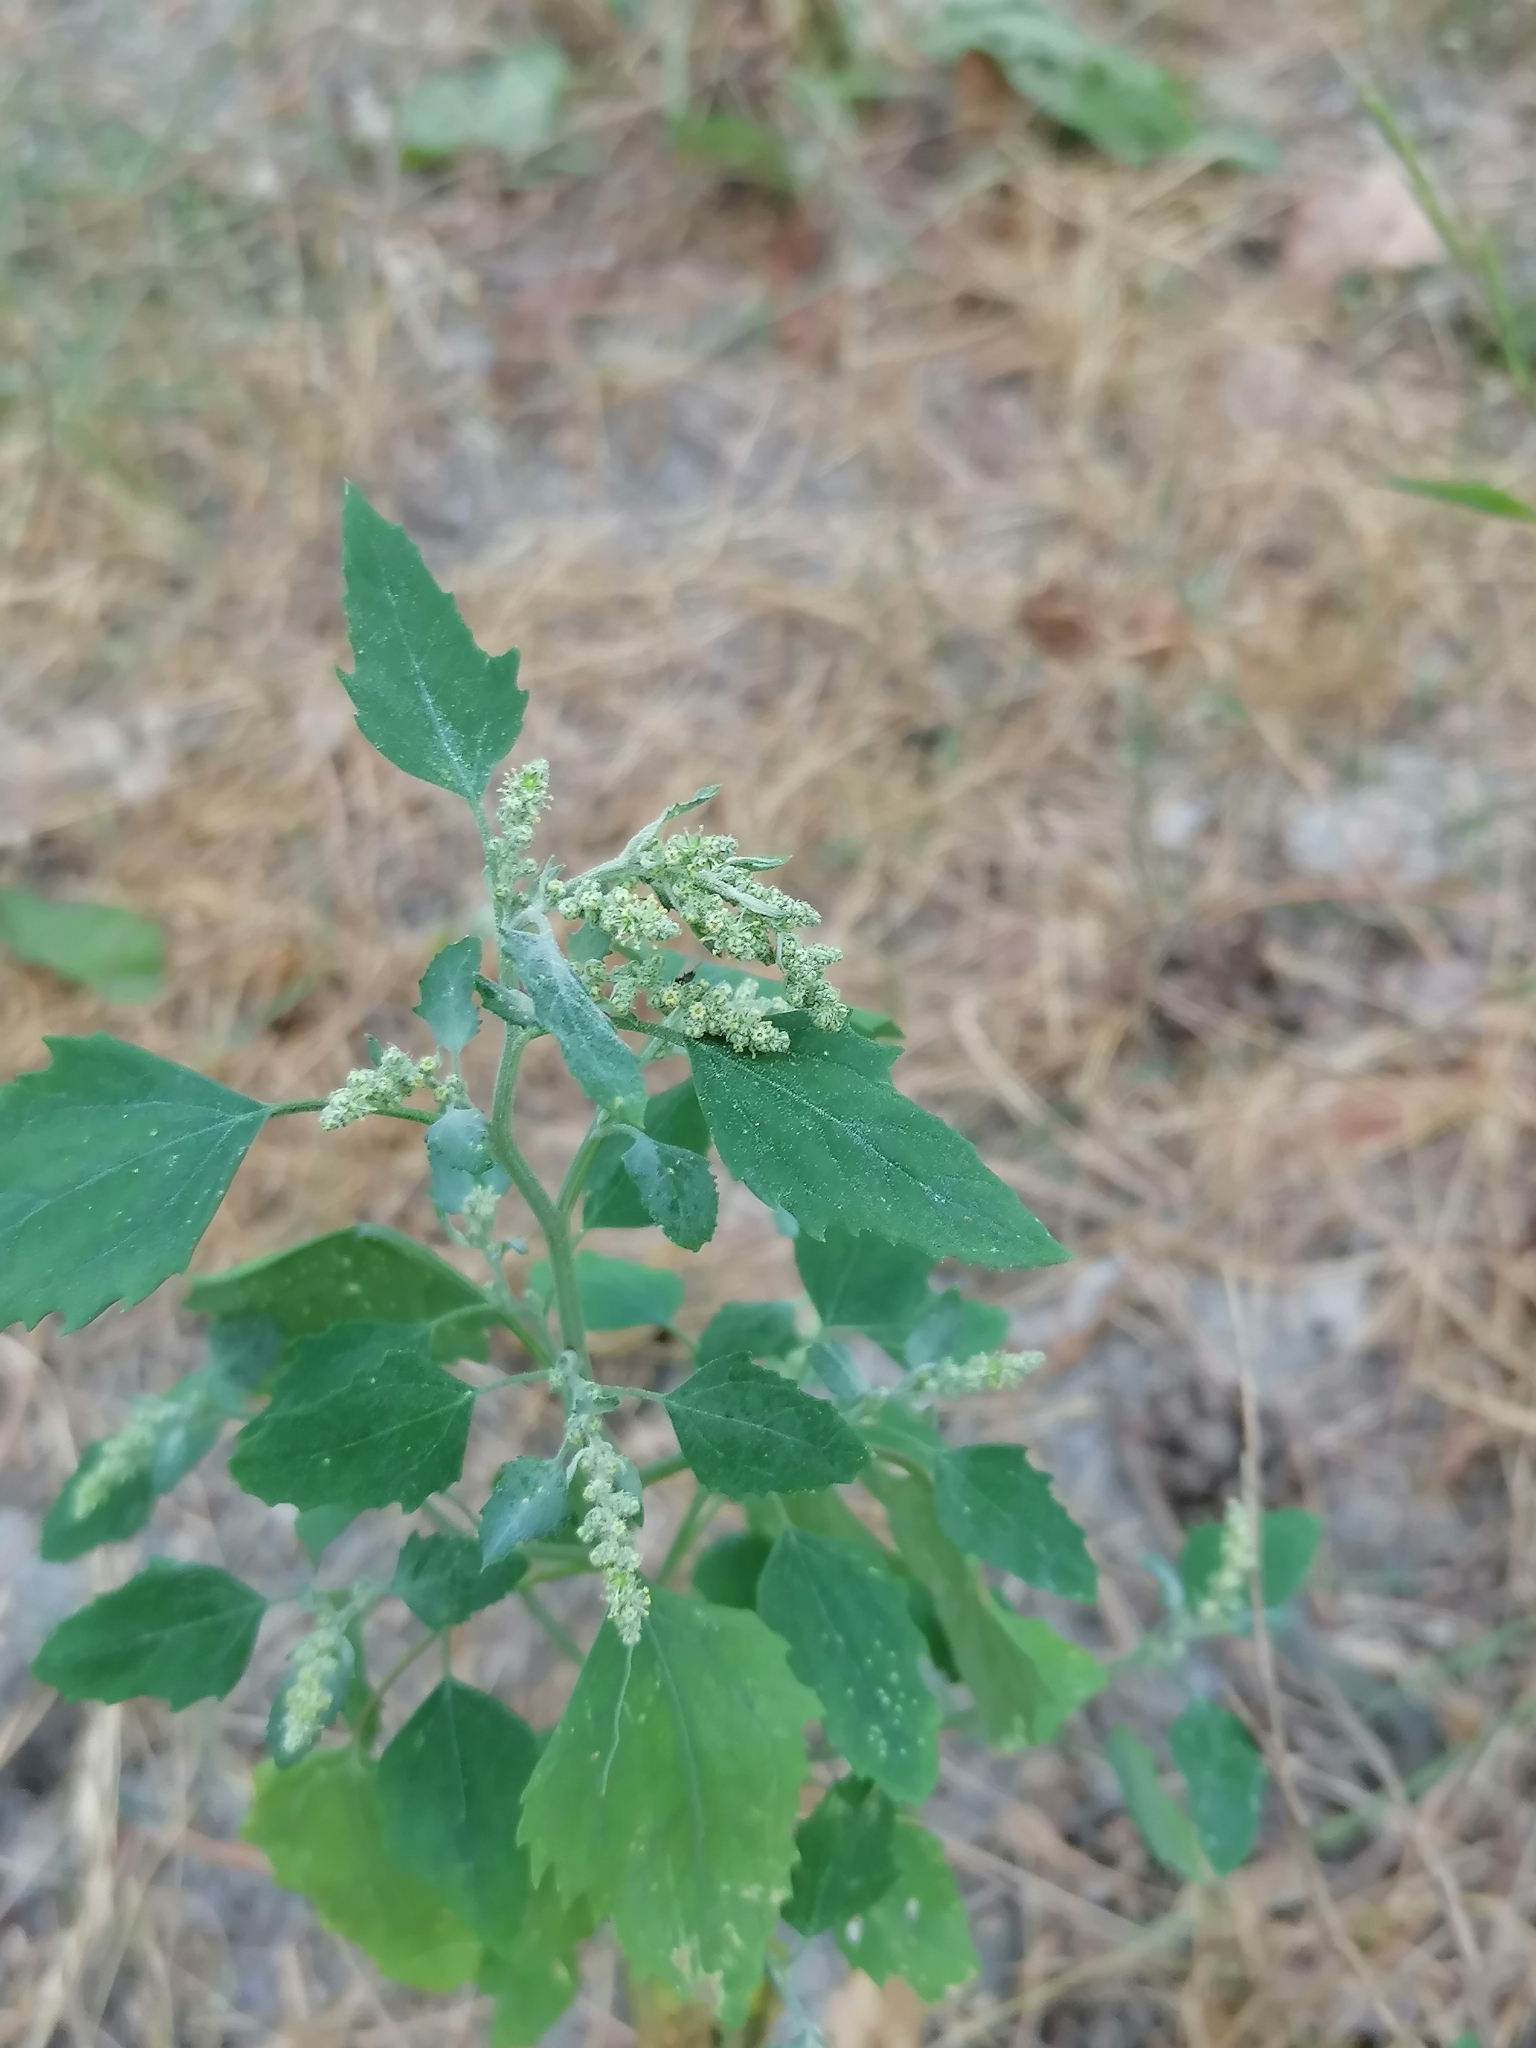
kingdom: Plantae
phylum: Tracheophyta
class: Magnoliopsida
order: Caryophyllales
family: Amaranthaceae
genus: Chenopodium
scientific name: Chenopodium album
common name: Fat-hen
